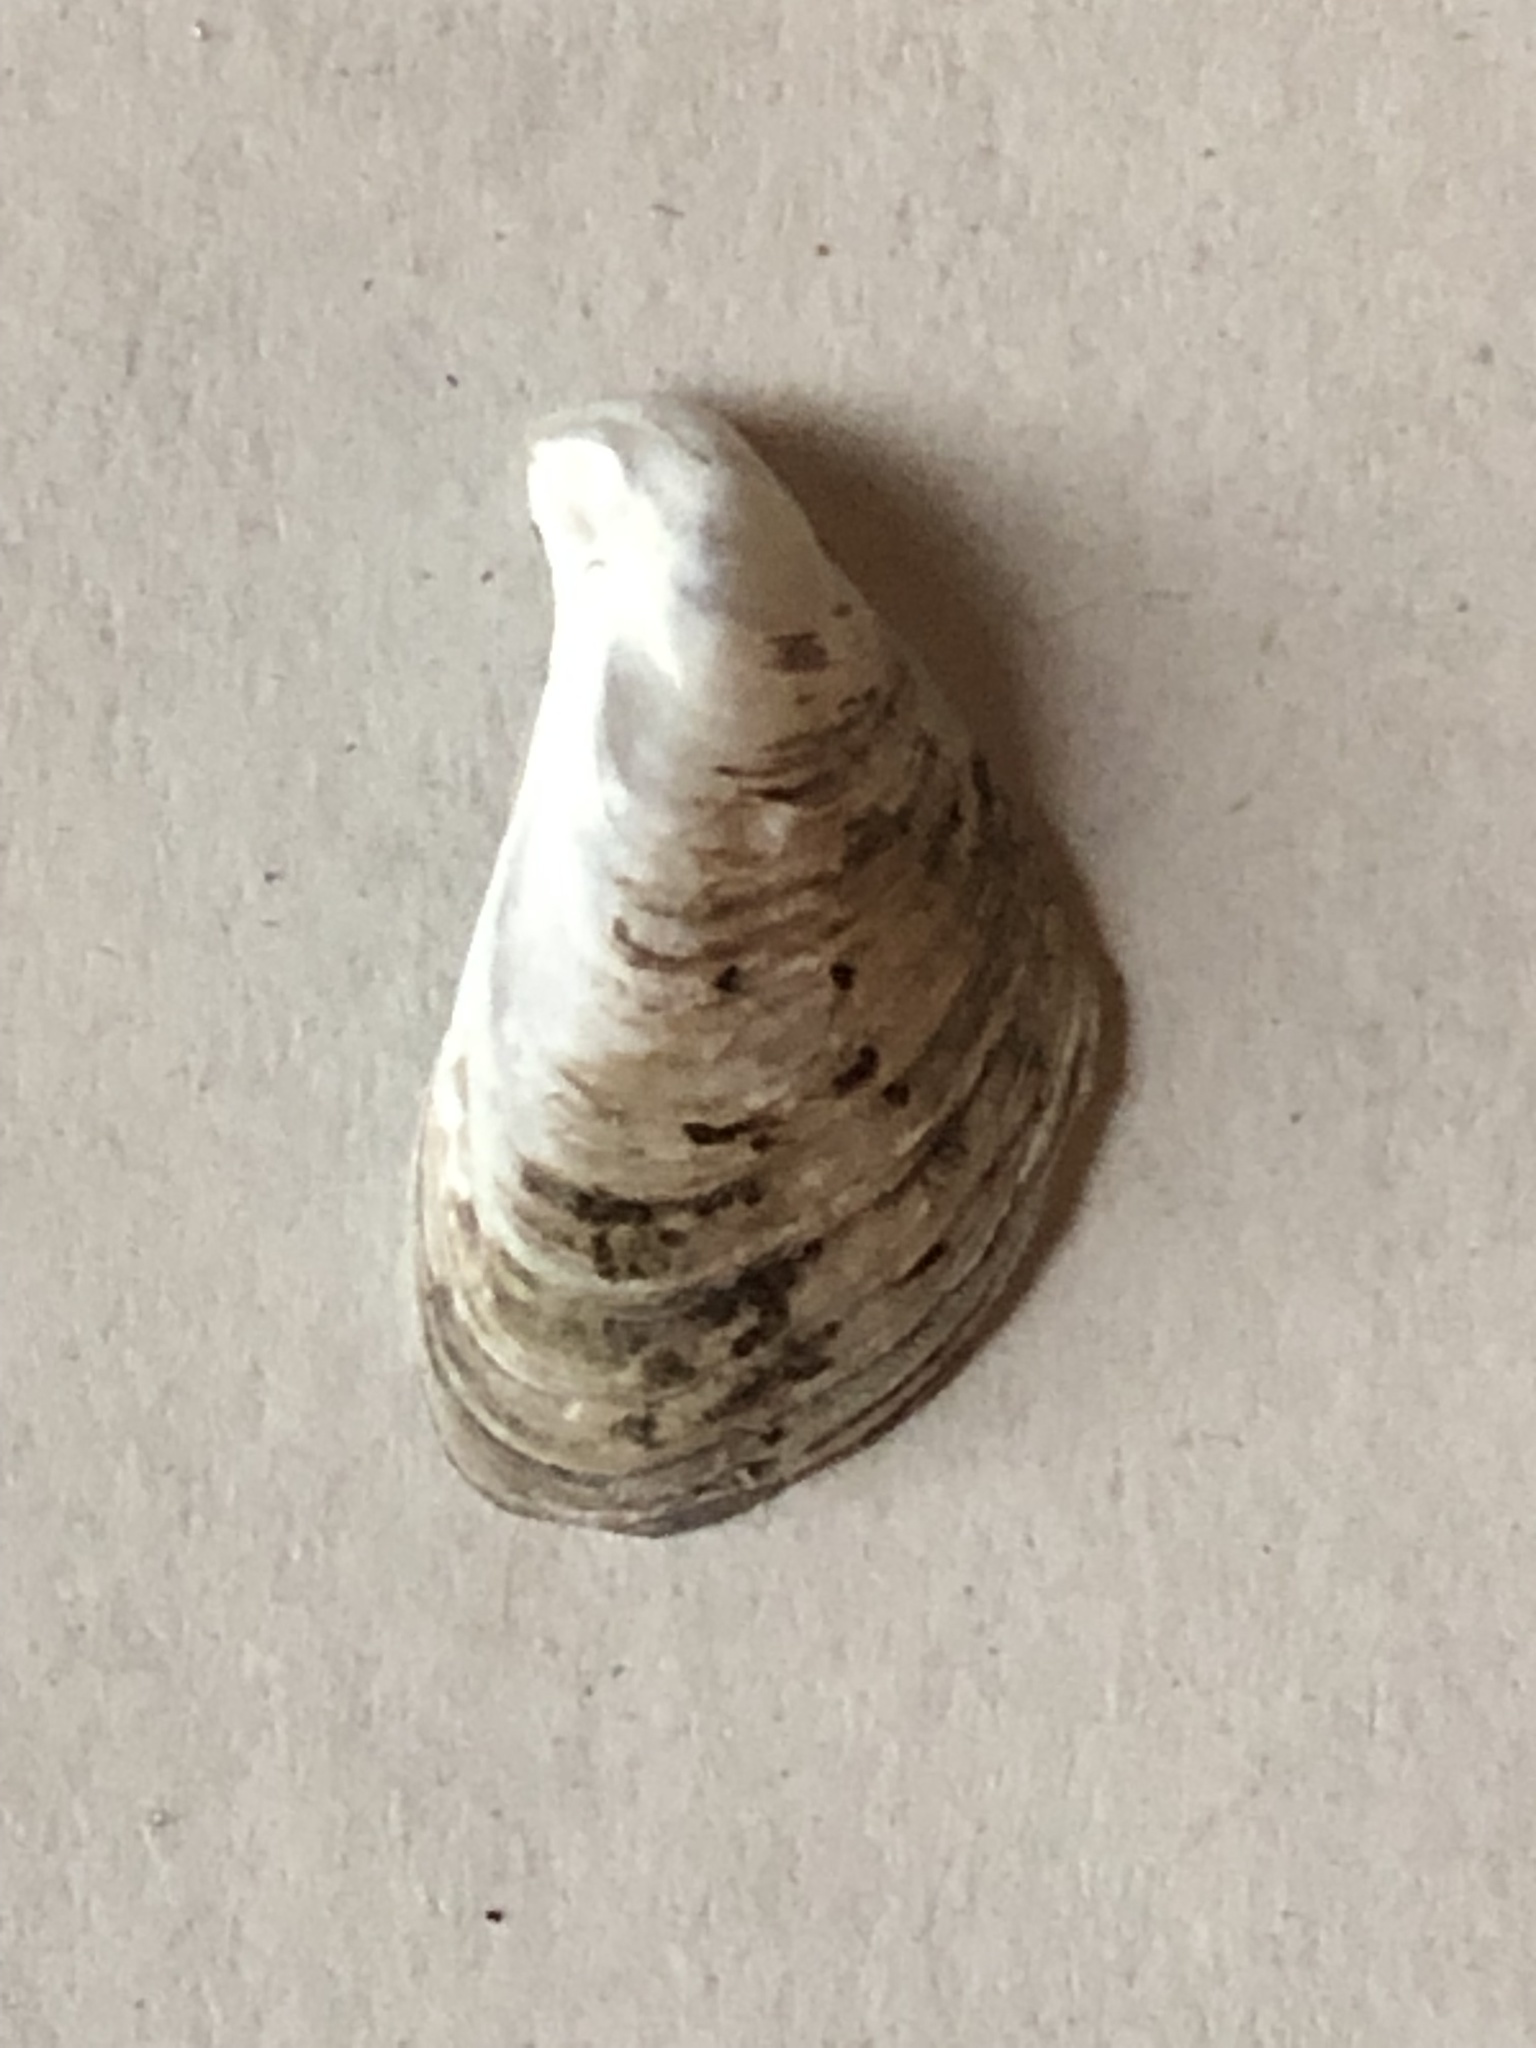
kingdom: Animalia
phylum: Mollusca
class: Bivalvia
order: Myida
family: Dreissenidae
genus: Dreissena
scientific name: Dreissena bugensis
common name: Quagga mussel
